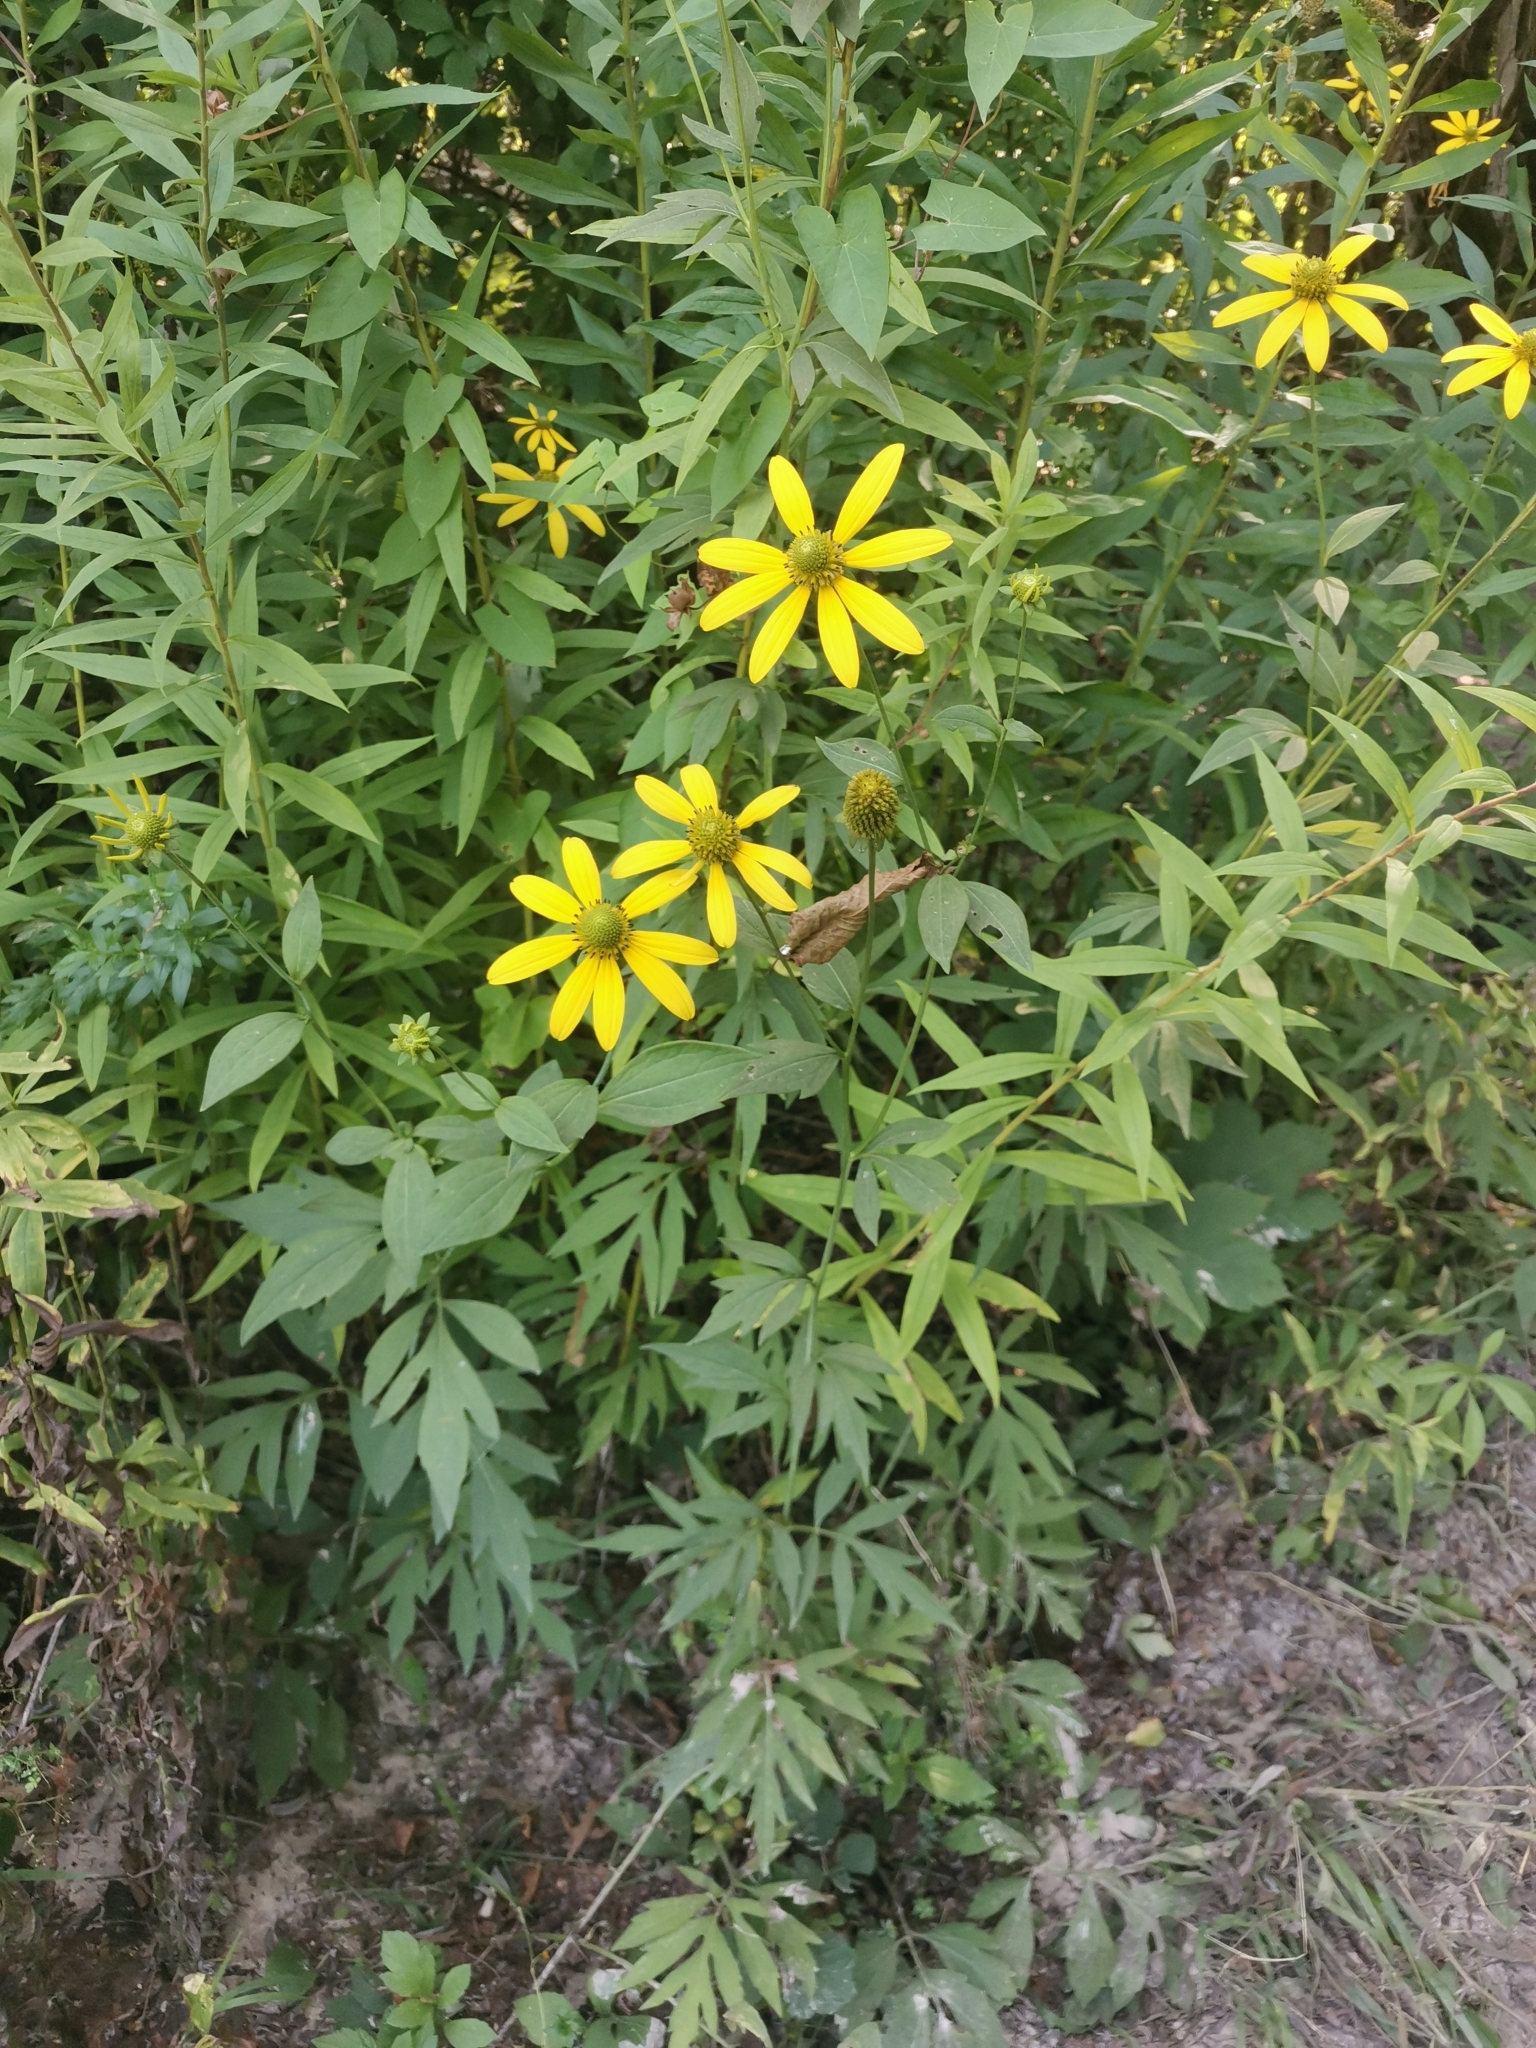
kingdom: Plantae
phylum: Tracheophyta
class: Magnoliopsida
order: Asterales
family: Asteraceae
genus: Rudbeckia
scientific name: Rudbeckia laciniata
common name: Coneflower
